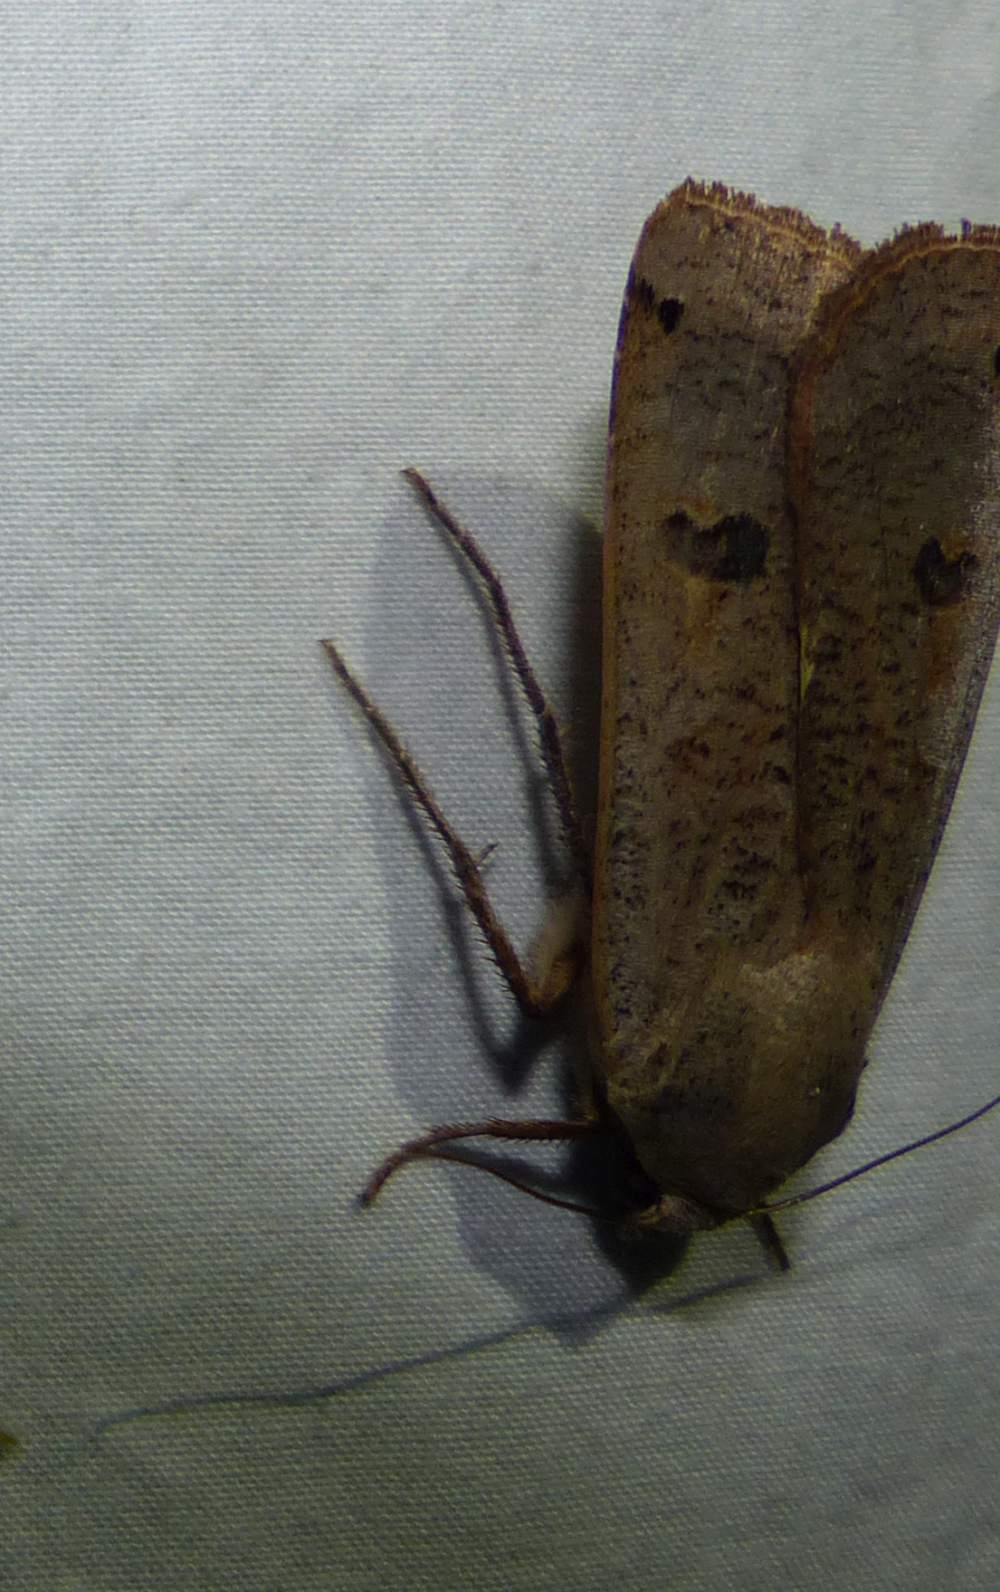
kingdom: Animalia
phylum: Arthropoda
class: Insecta
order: Lepidoptera
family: Noctuidae
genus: Noctua
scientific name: Noctua pronuba
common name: Large yellow underwing
